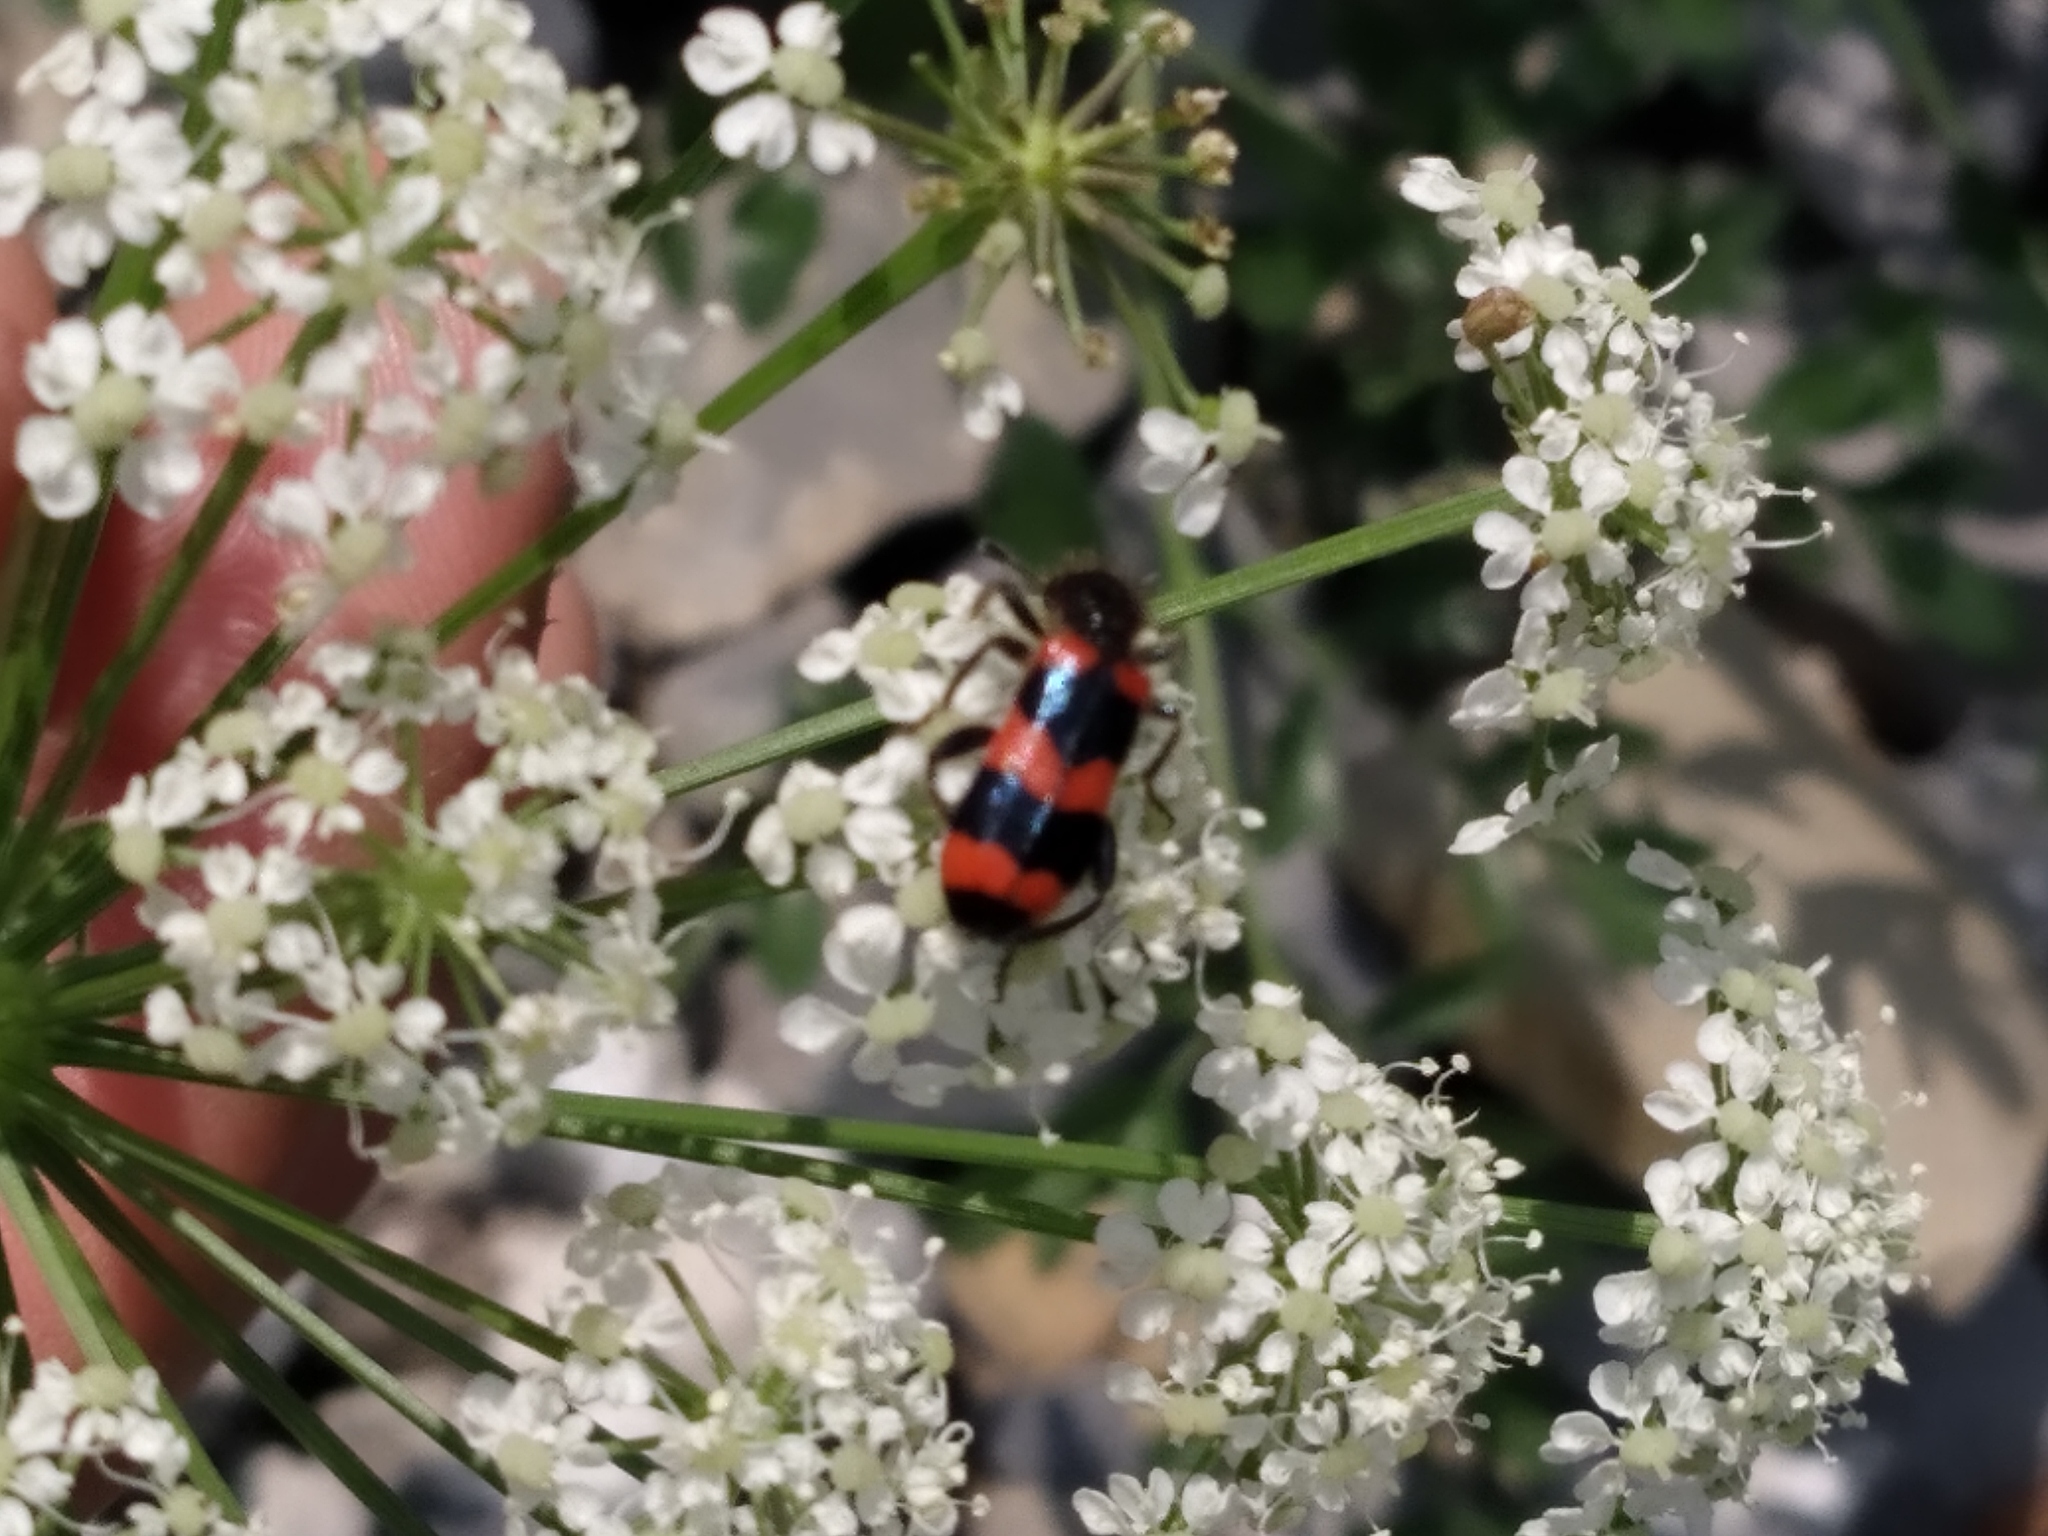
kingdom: Animalia
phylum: Arthropoda
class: Insecta
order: Coleoptera
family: Cleridae
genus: Trichodes
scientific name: Trichodes apiarius
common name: Bee-eating beetle
